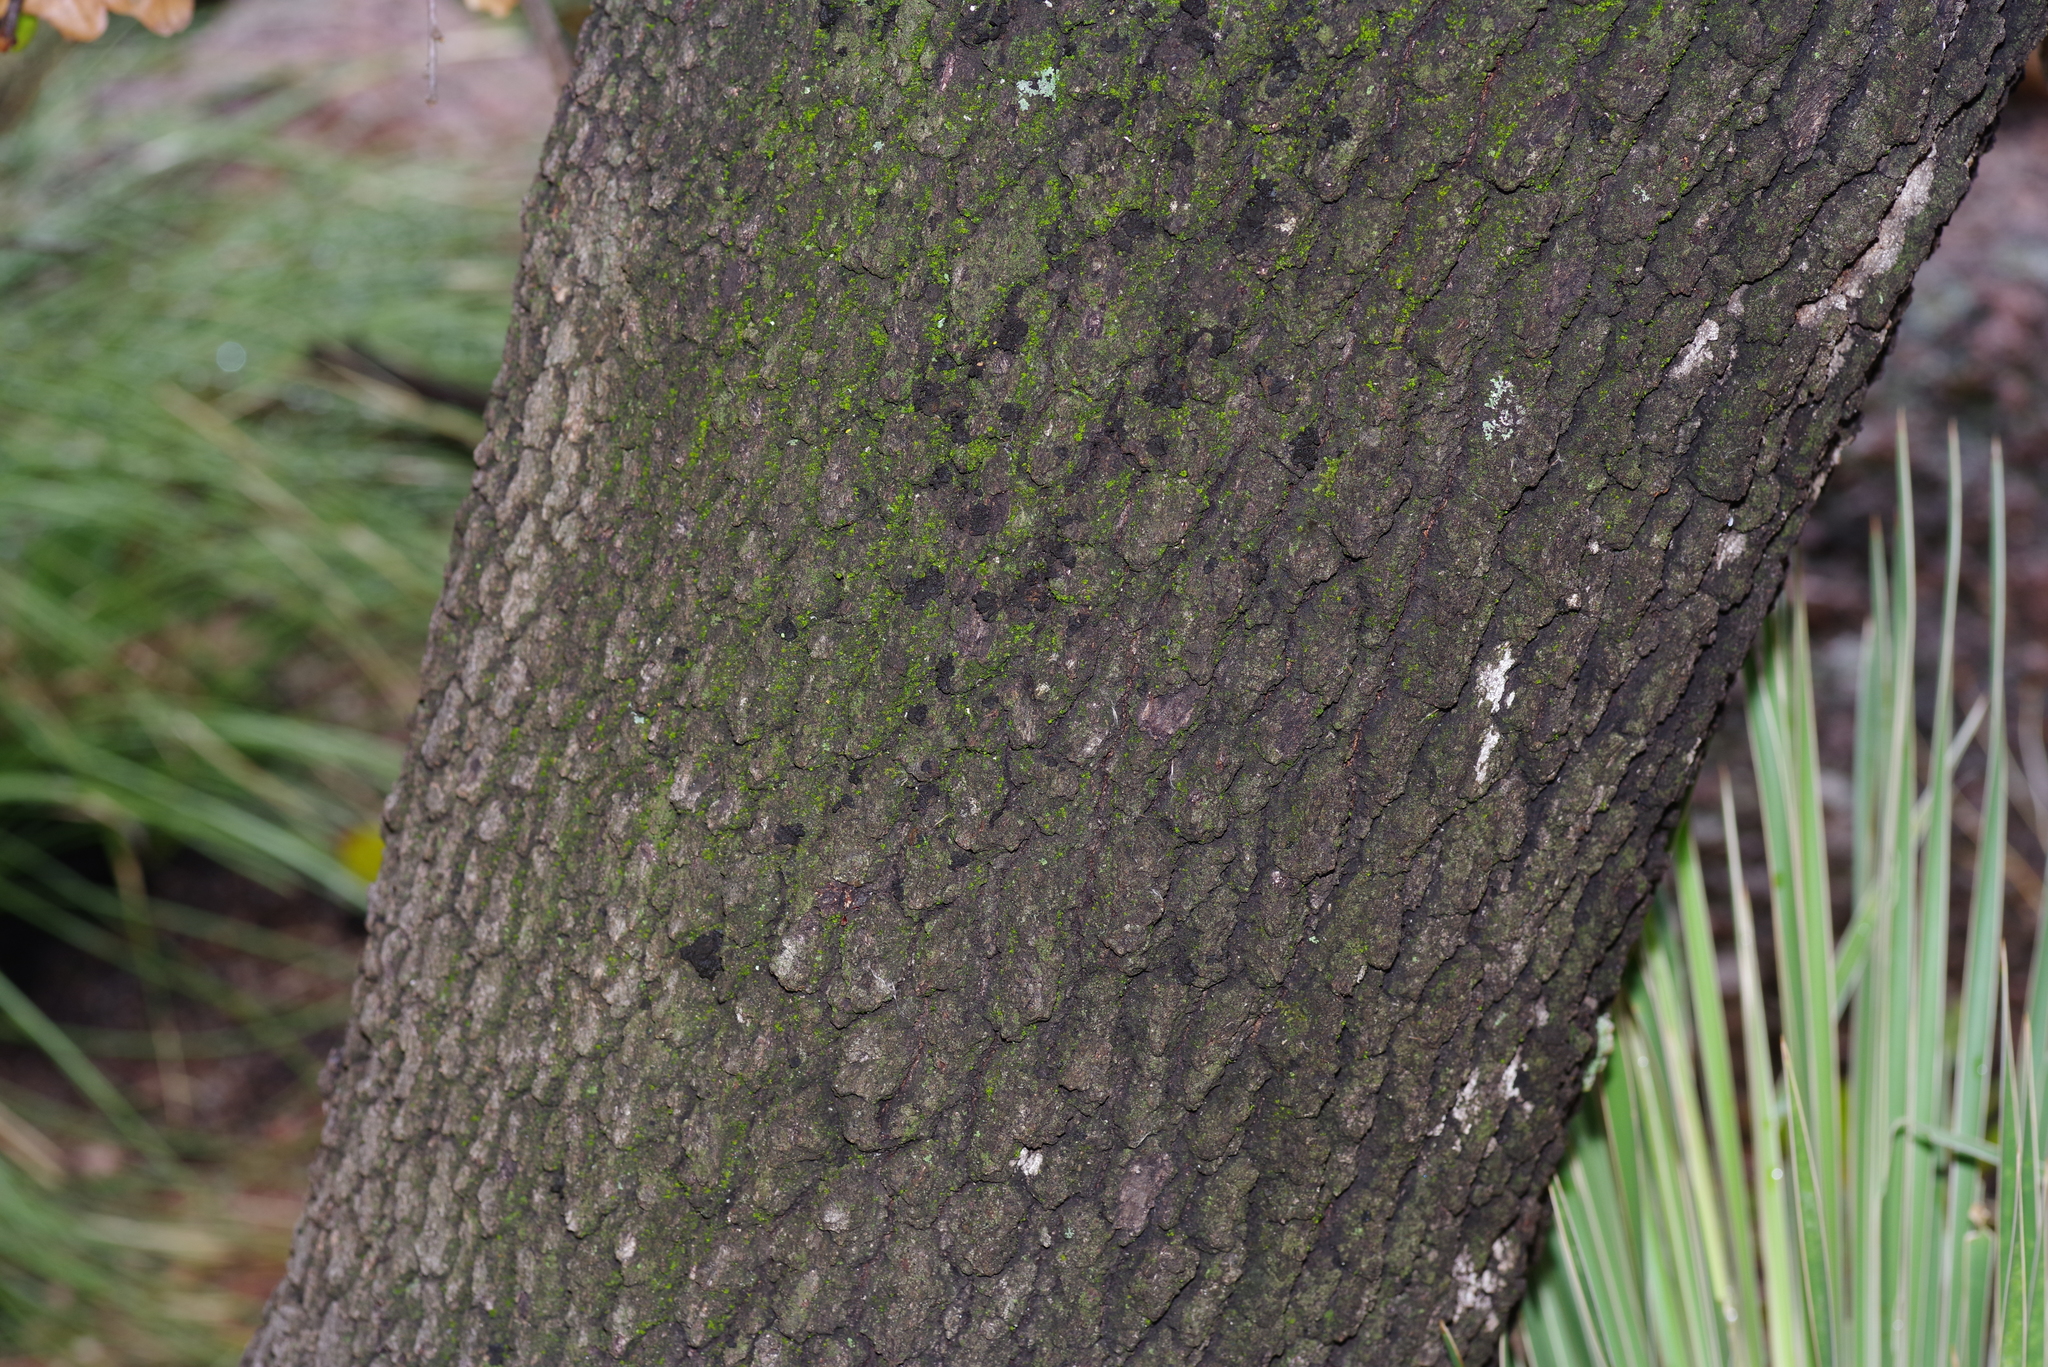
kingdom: Plantae
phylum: Tracheophyta
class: Magnoliopsida
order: Fagales
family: Fagaceae
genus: Quercus
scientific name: Quercus marilandica
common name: Blackjack oak
